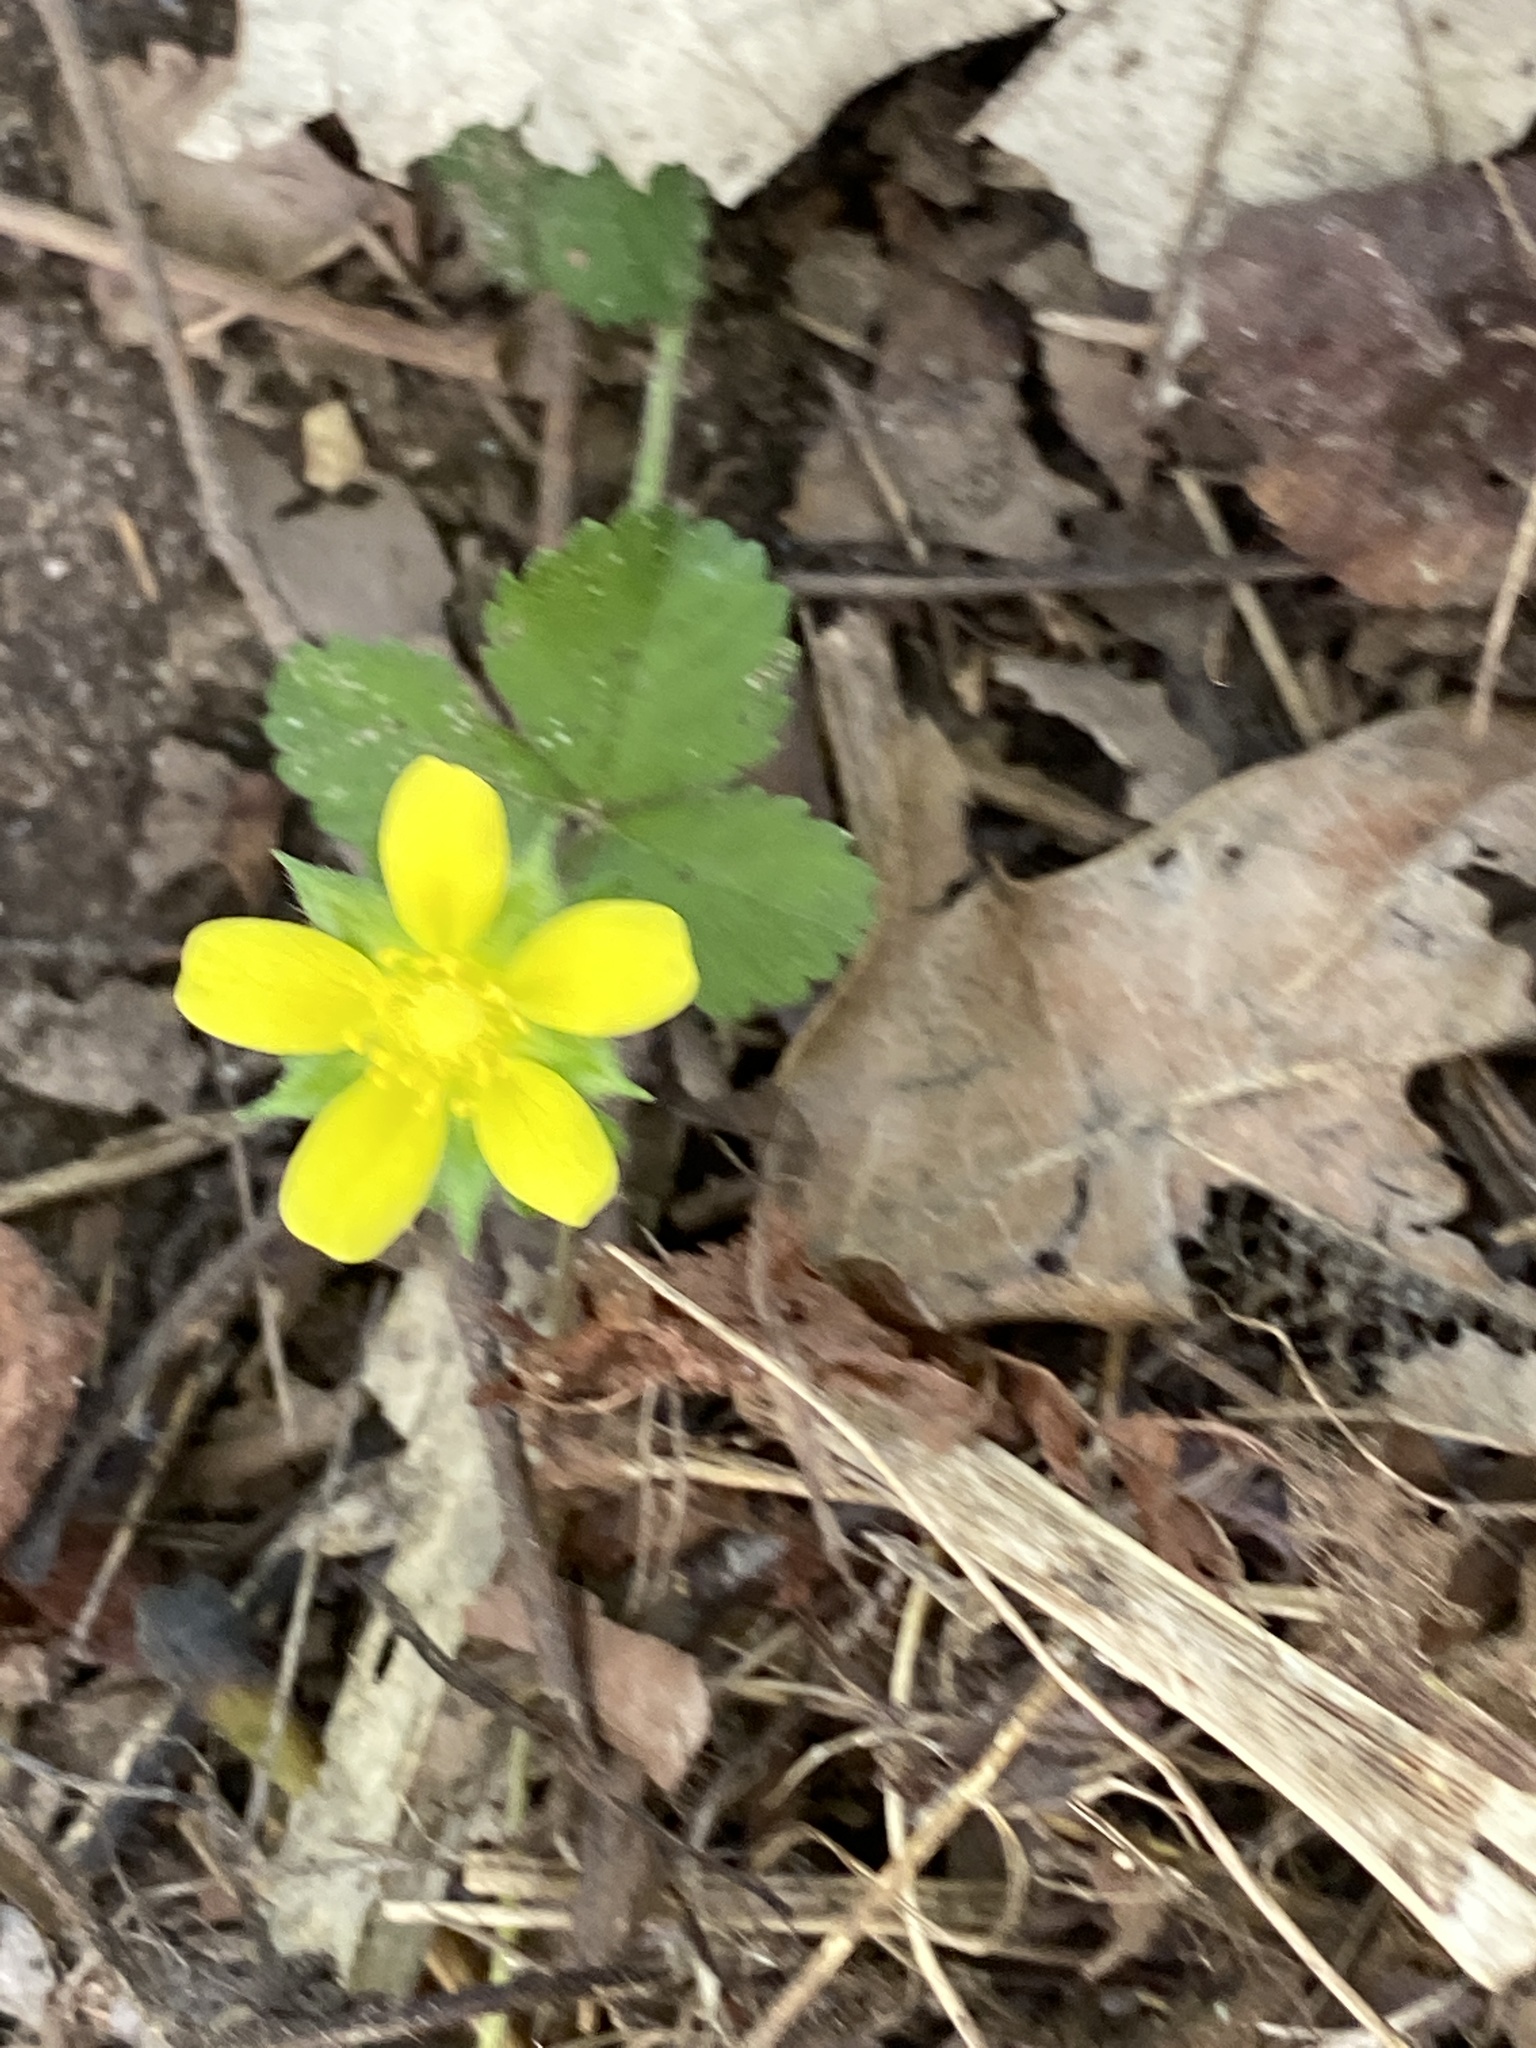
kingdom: Plantae
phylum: Tracheophyta
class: Magnoliopsida
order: Rosales
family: Rosaceae
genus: Potentilla
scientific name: Potentilla indica
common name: Yellow-flowered strawberry
